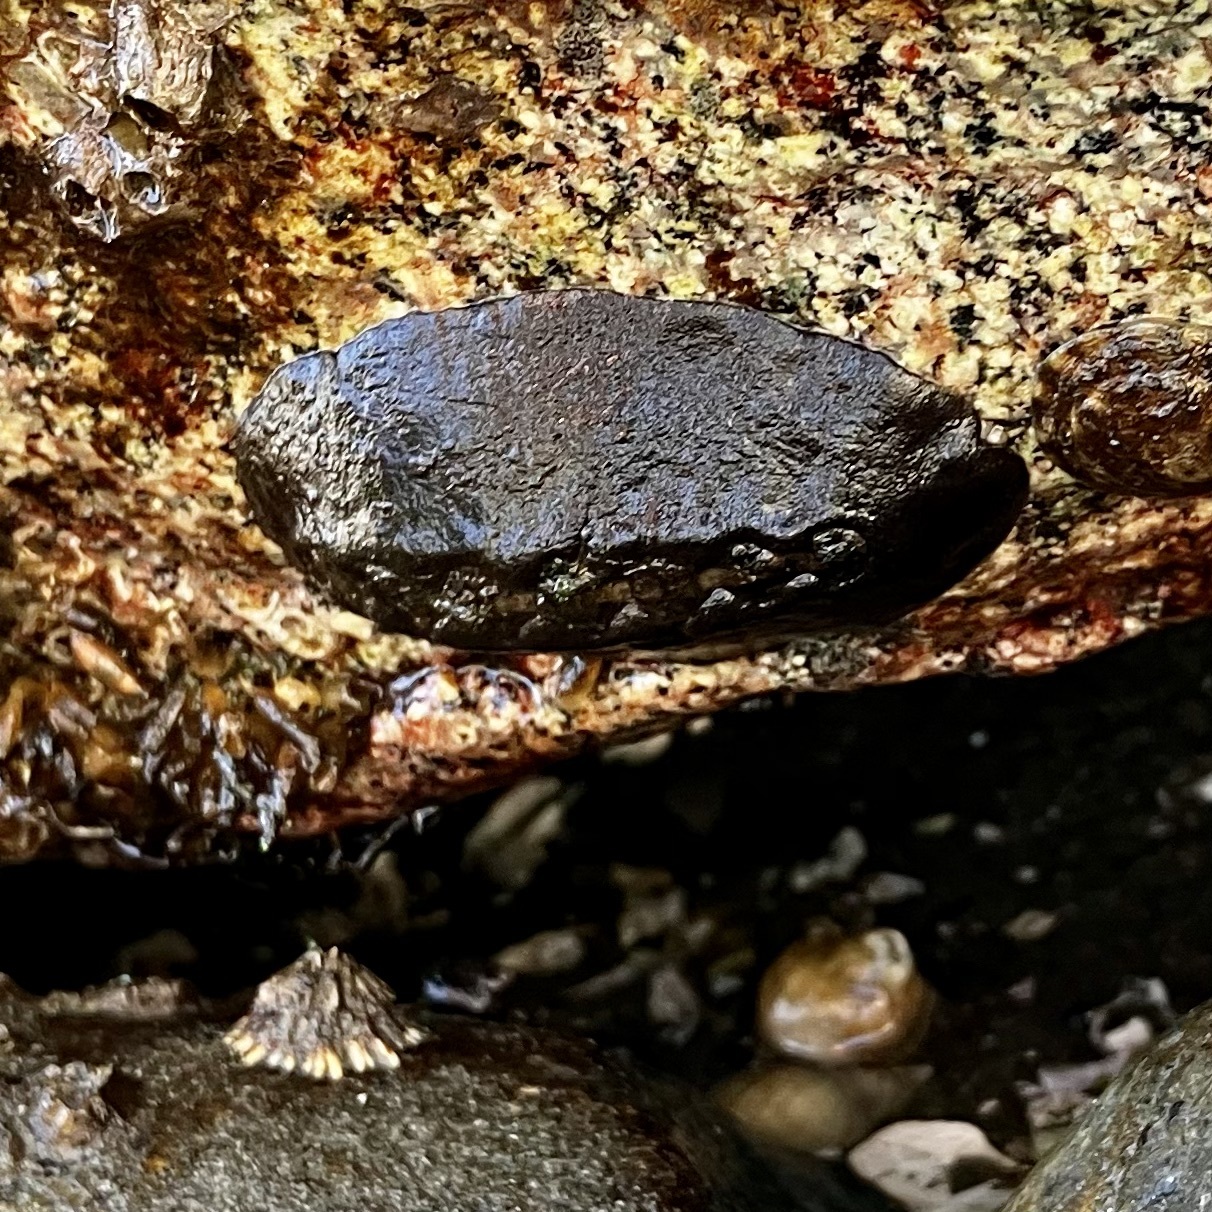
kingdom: Animalia
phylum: Mollusca
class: Polyplacophora
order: Chitonida
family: Mopaliidae
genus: Katharina
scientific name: Katharina tunicata
